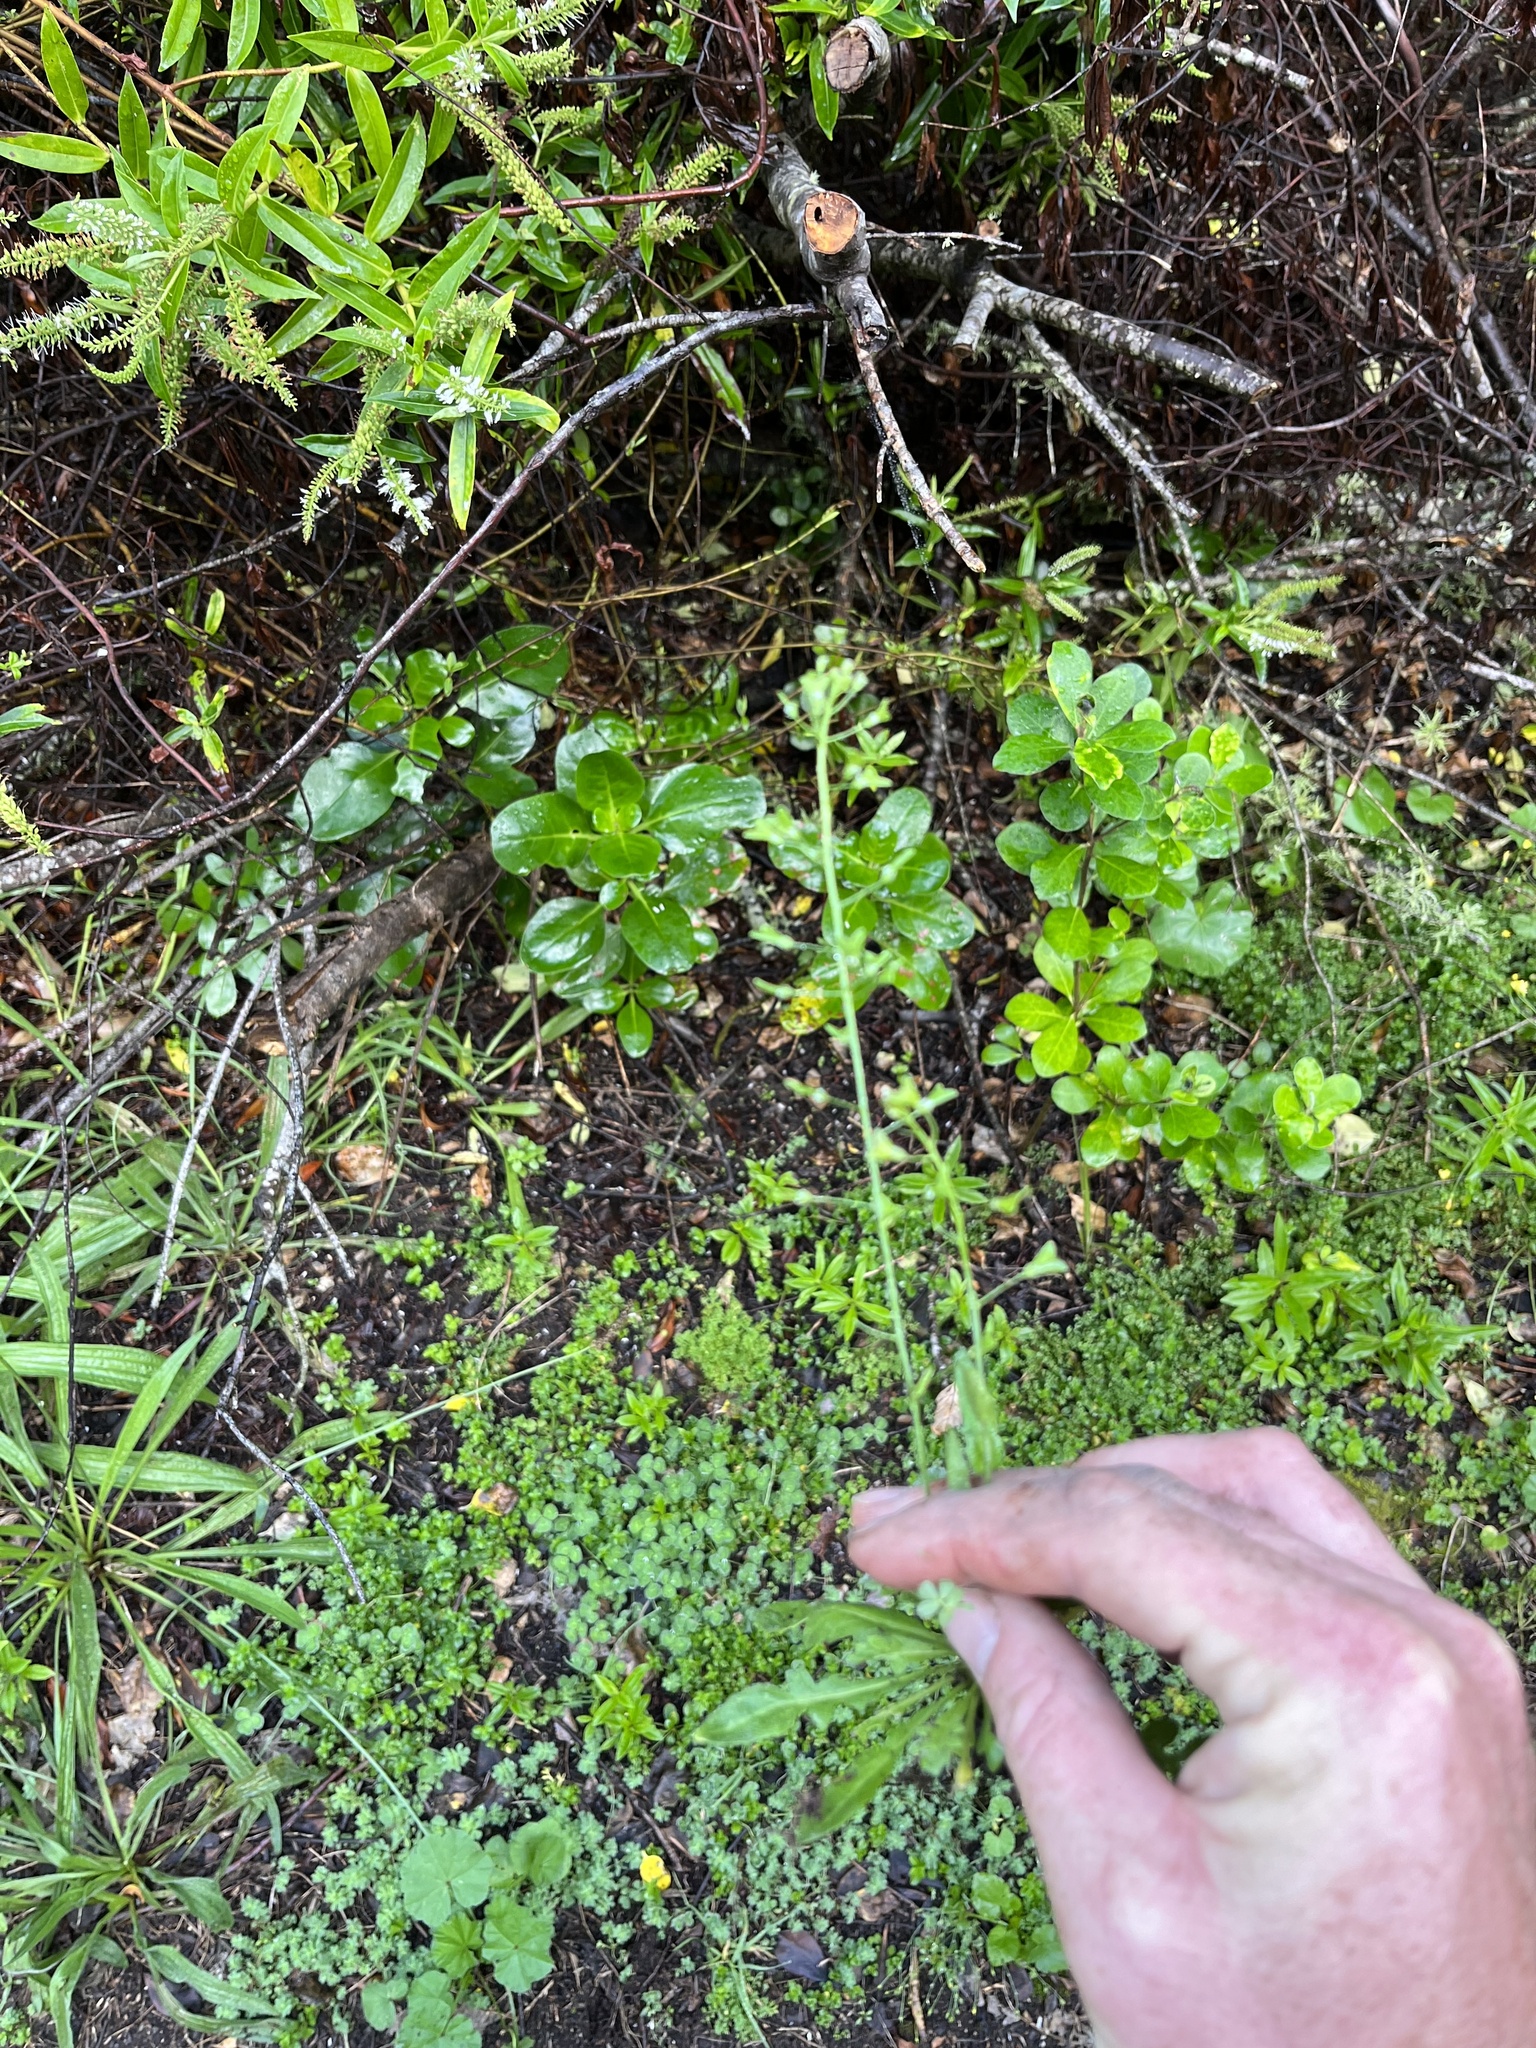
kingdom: Plantae
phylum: Tracheophyta
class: Magnoliopsida
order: Brassicales
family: Brassicaceae
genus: Capsella
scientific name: Capsella bursa-pastoris
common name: Shepherd's purse
